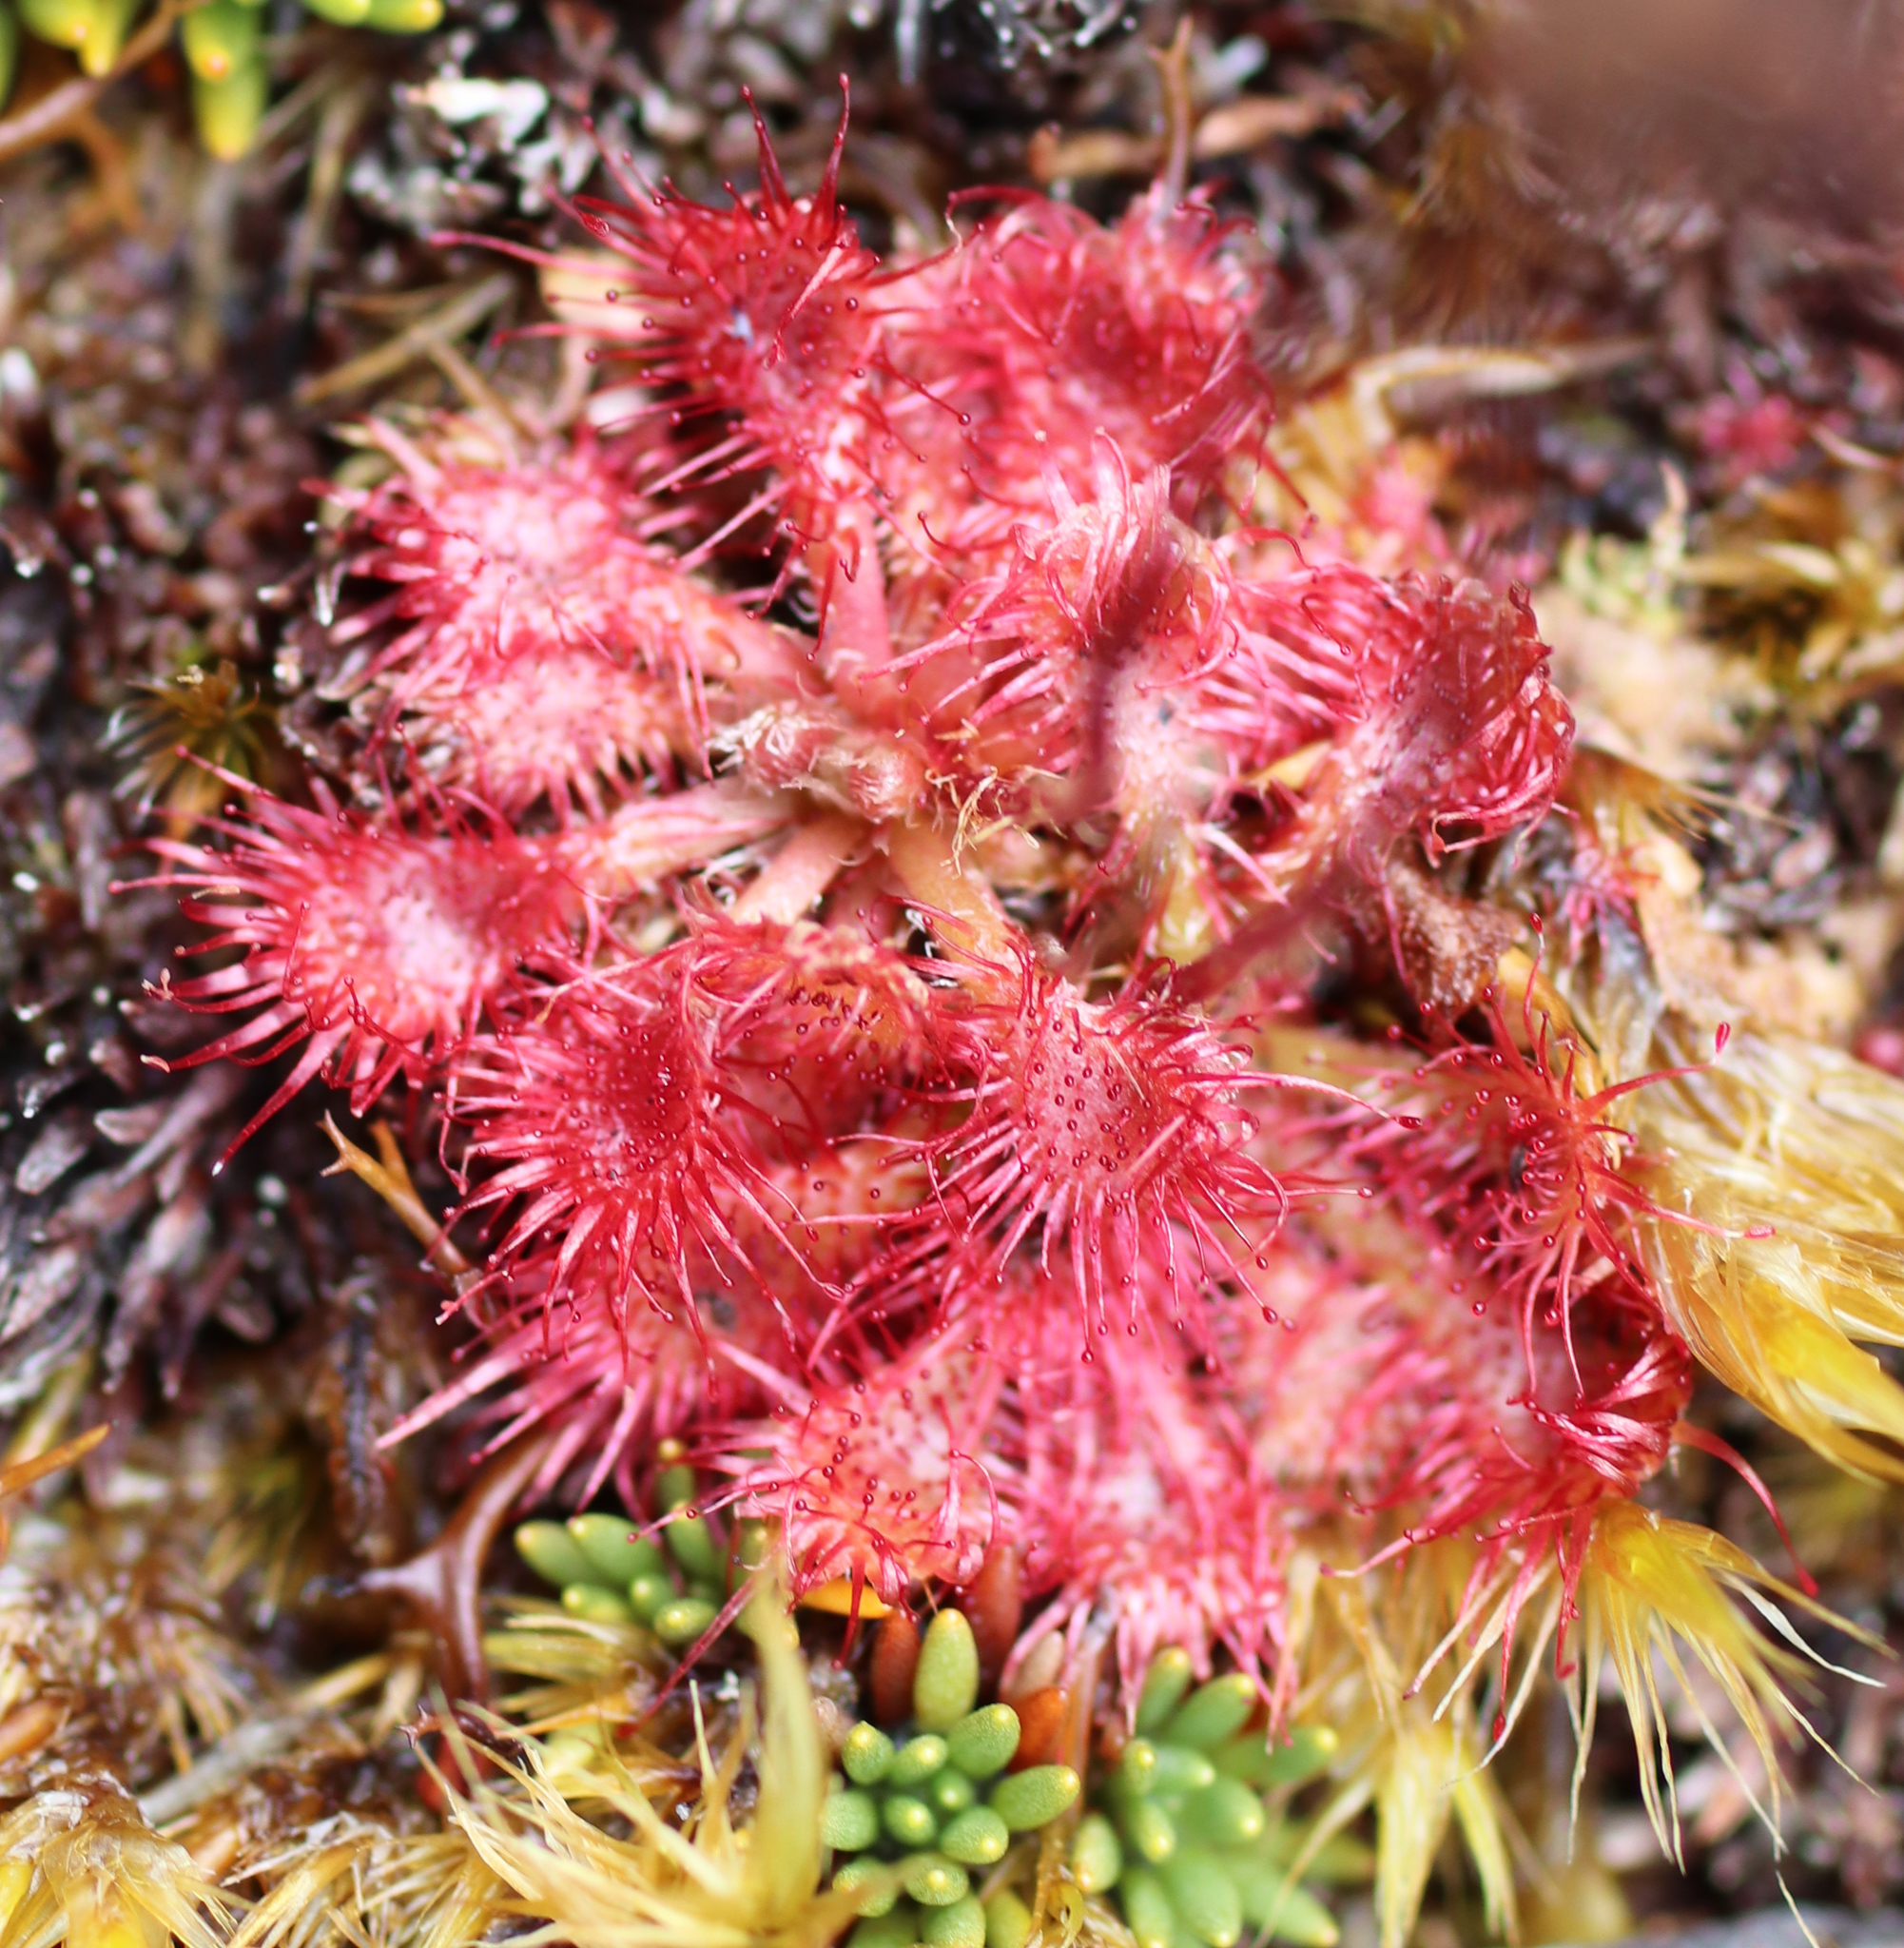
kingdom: Plantae
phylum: Tracheophyta
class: Magnoliopsida
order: Caryophyllales
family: Droseraceae
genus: Drosera
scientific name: Drosera spatulata
